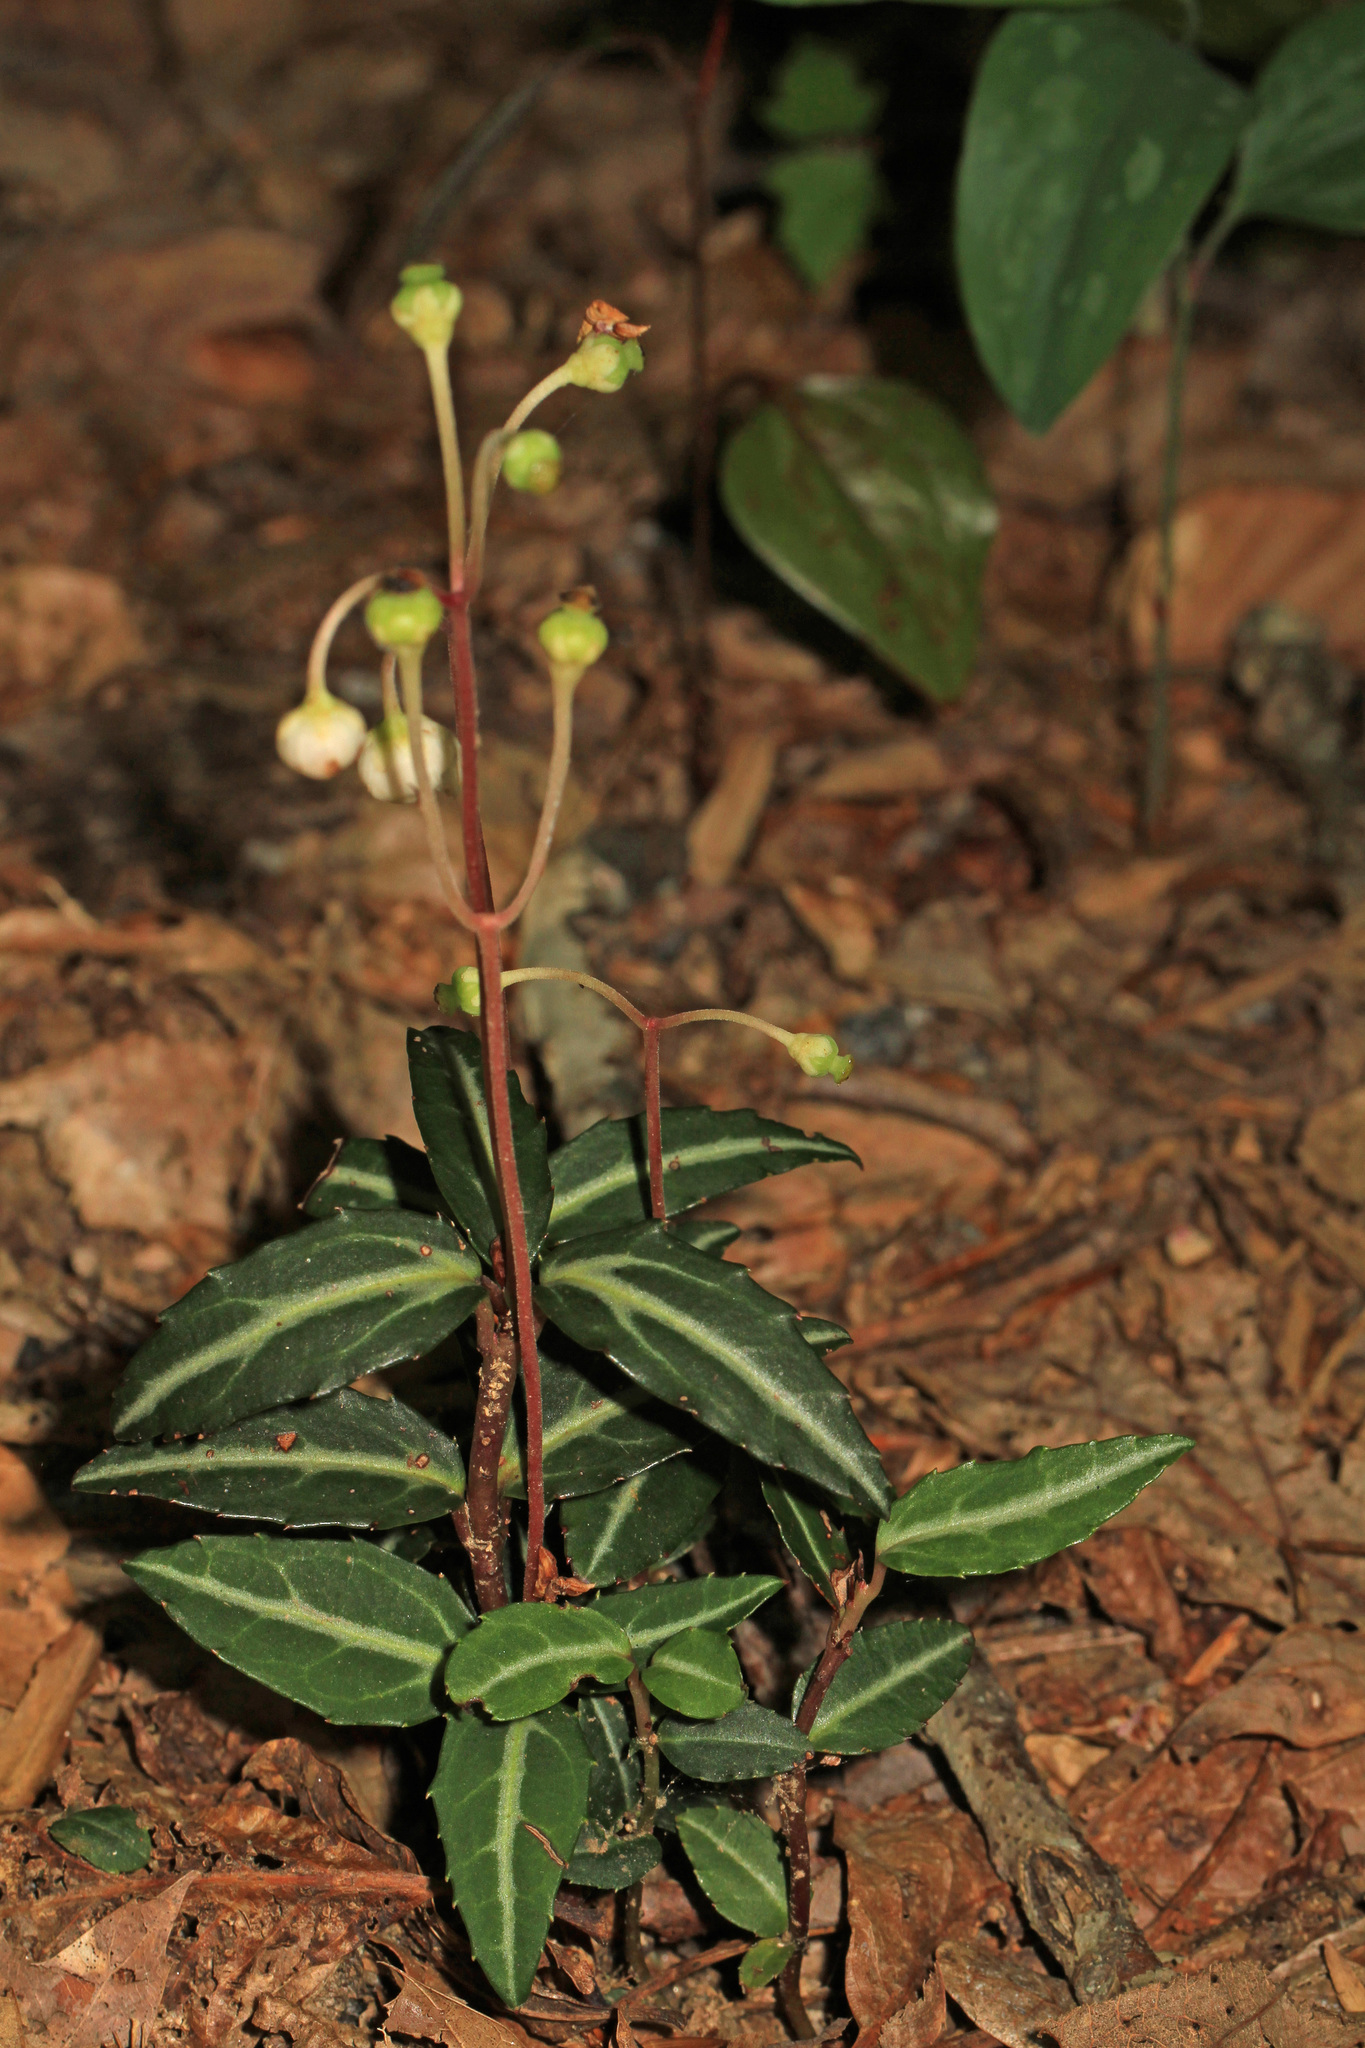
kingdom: Plantae
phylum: Tracheophyta
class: Magnoliopsida
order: Ericales
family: Ericaceae
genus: Chimaphila
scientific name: Chimaphila maculata
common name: Spotted pipsissewa
